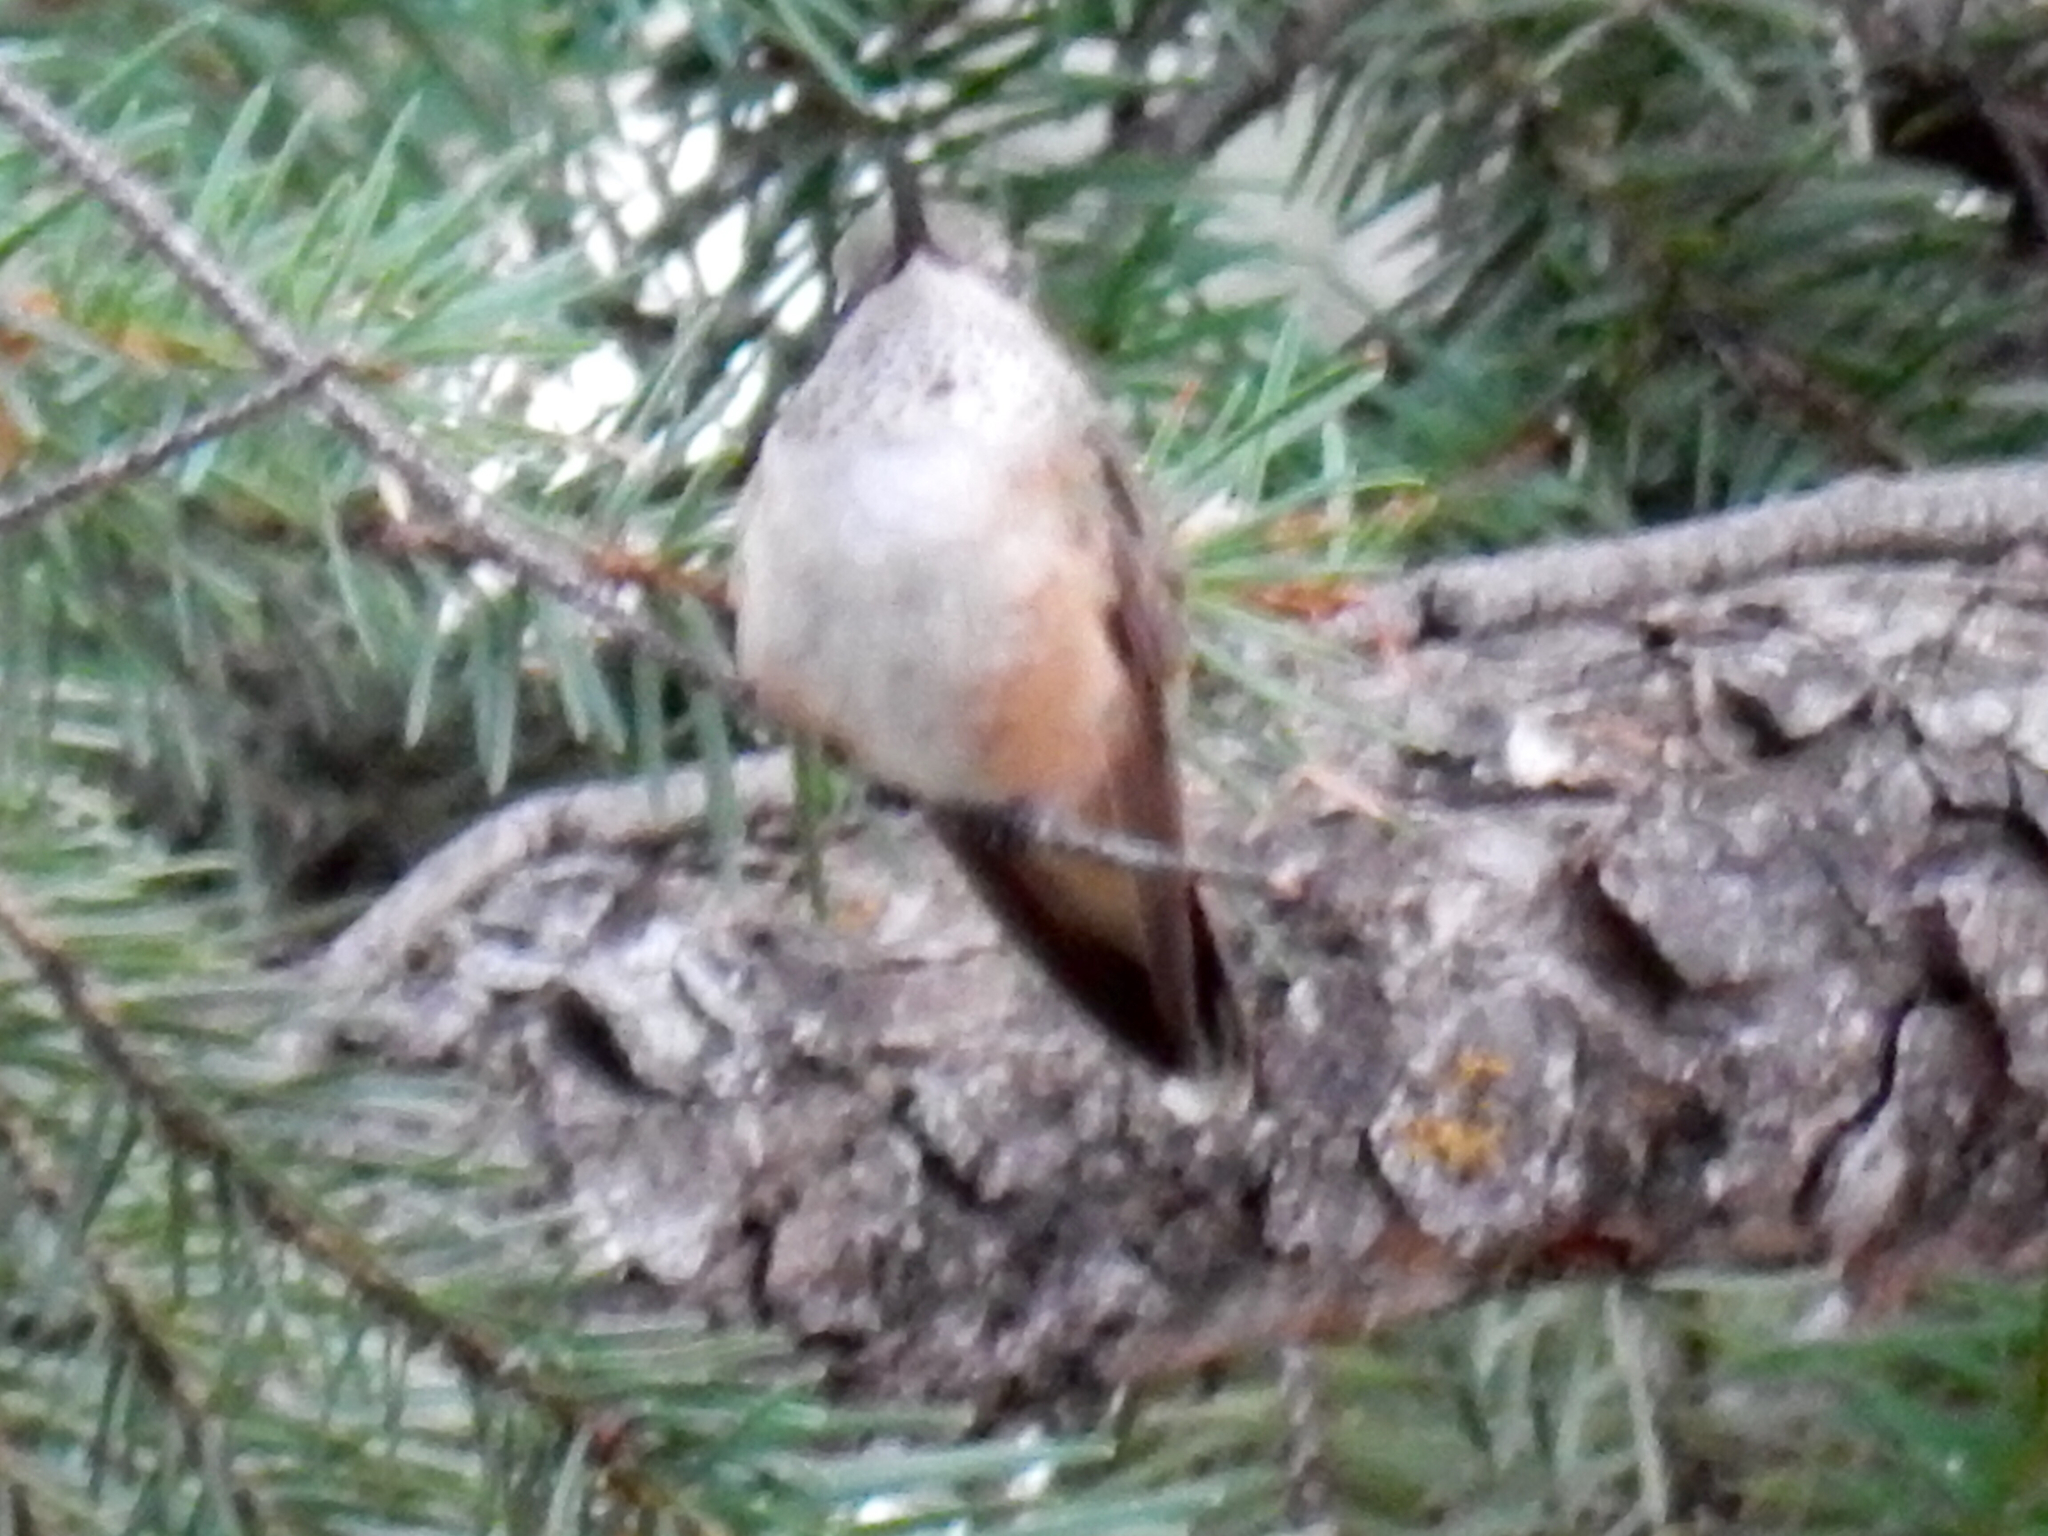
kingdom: Animalia
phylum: Chordata
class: Aves
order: Apodiformes
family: Trochilidae
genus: Selasphorus
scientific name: Selasphorus rufus
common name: Rufous hummingbird
